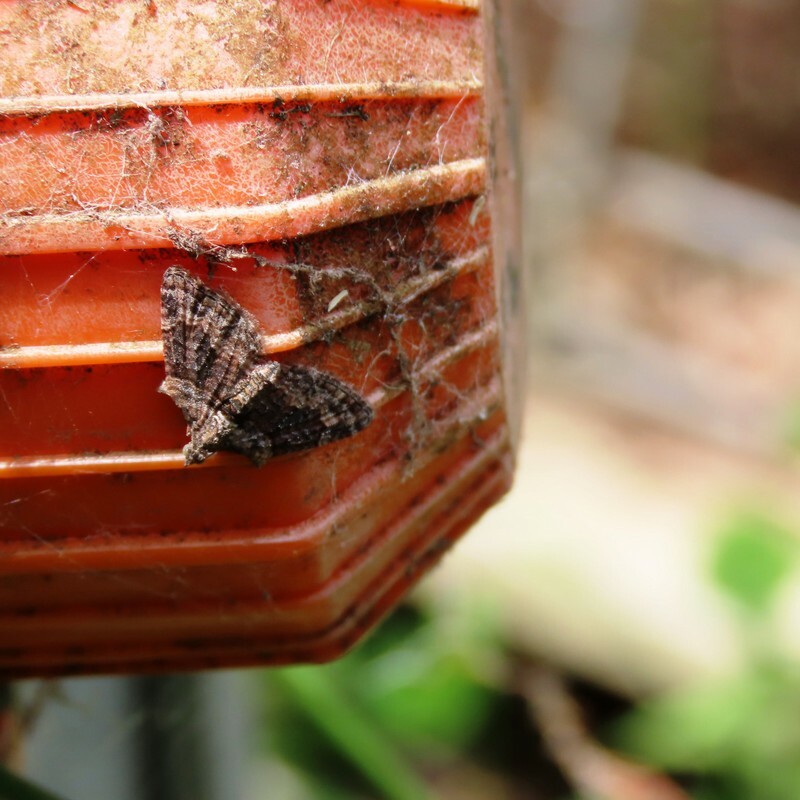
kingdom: Animalia
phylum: Arthropoda
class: Insecta
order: Lepidoptera
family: Geometridae
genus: Phrissogonus
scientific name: Phrissogonus laticostata
